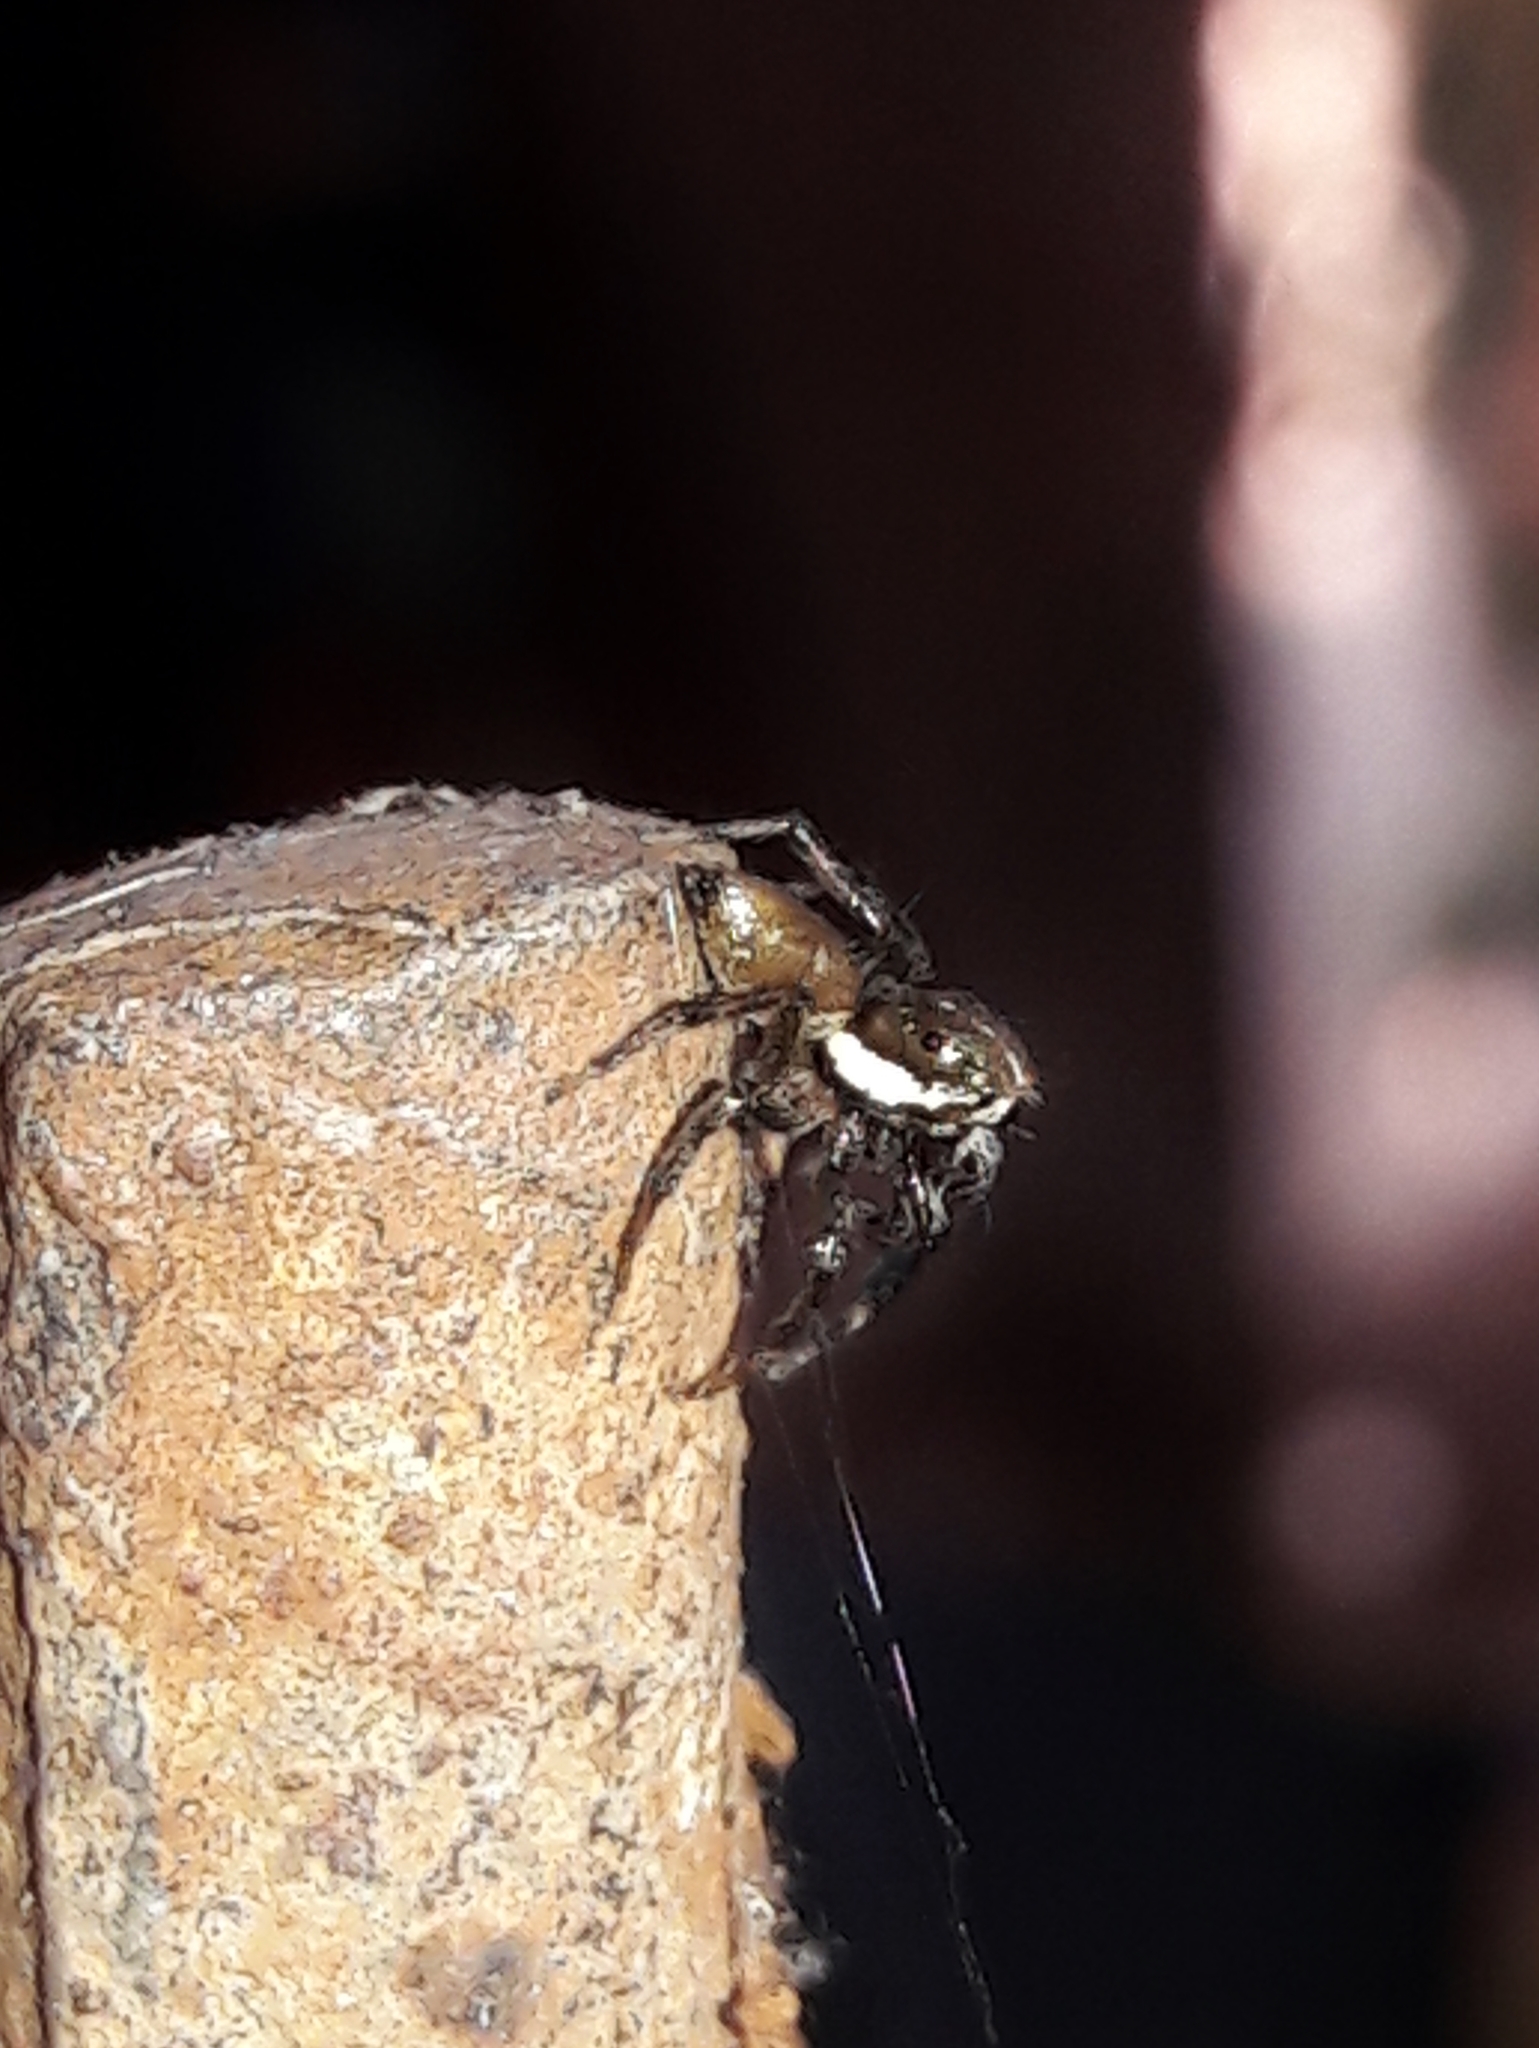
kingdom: Animalia
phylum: Arthropoda
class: Arachnida
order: Araneae
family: Salticidae
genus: Philira
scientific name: Philira micans
